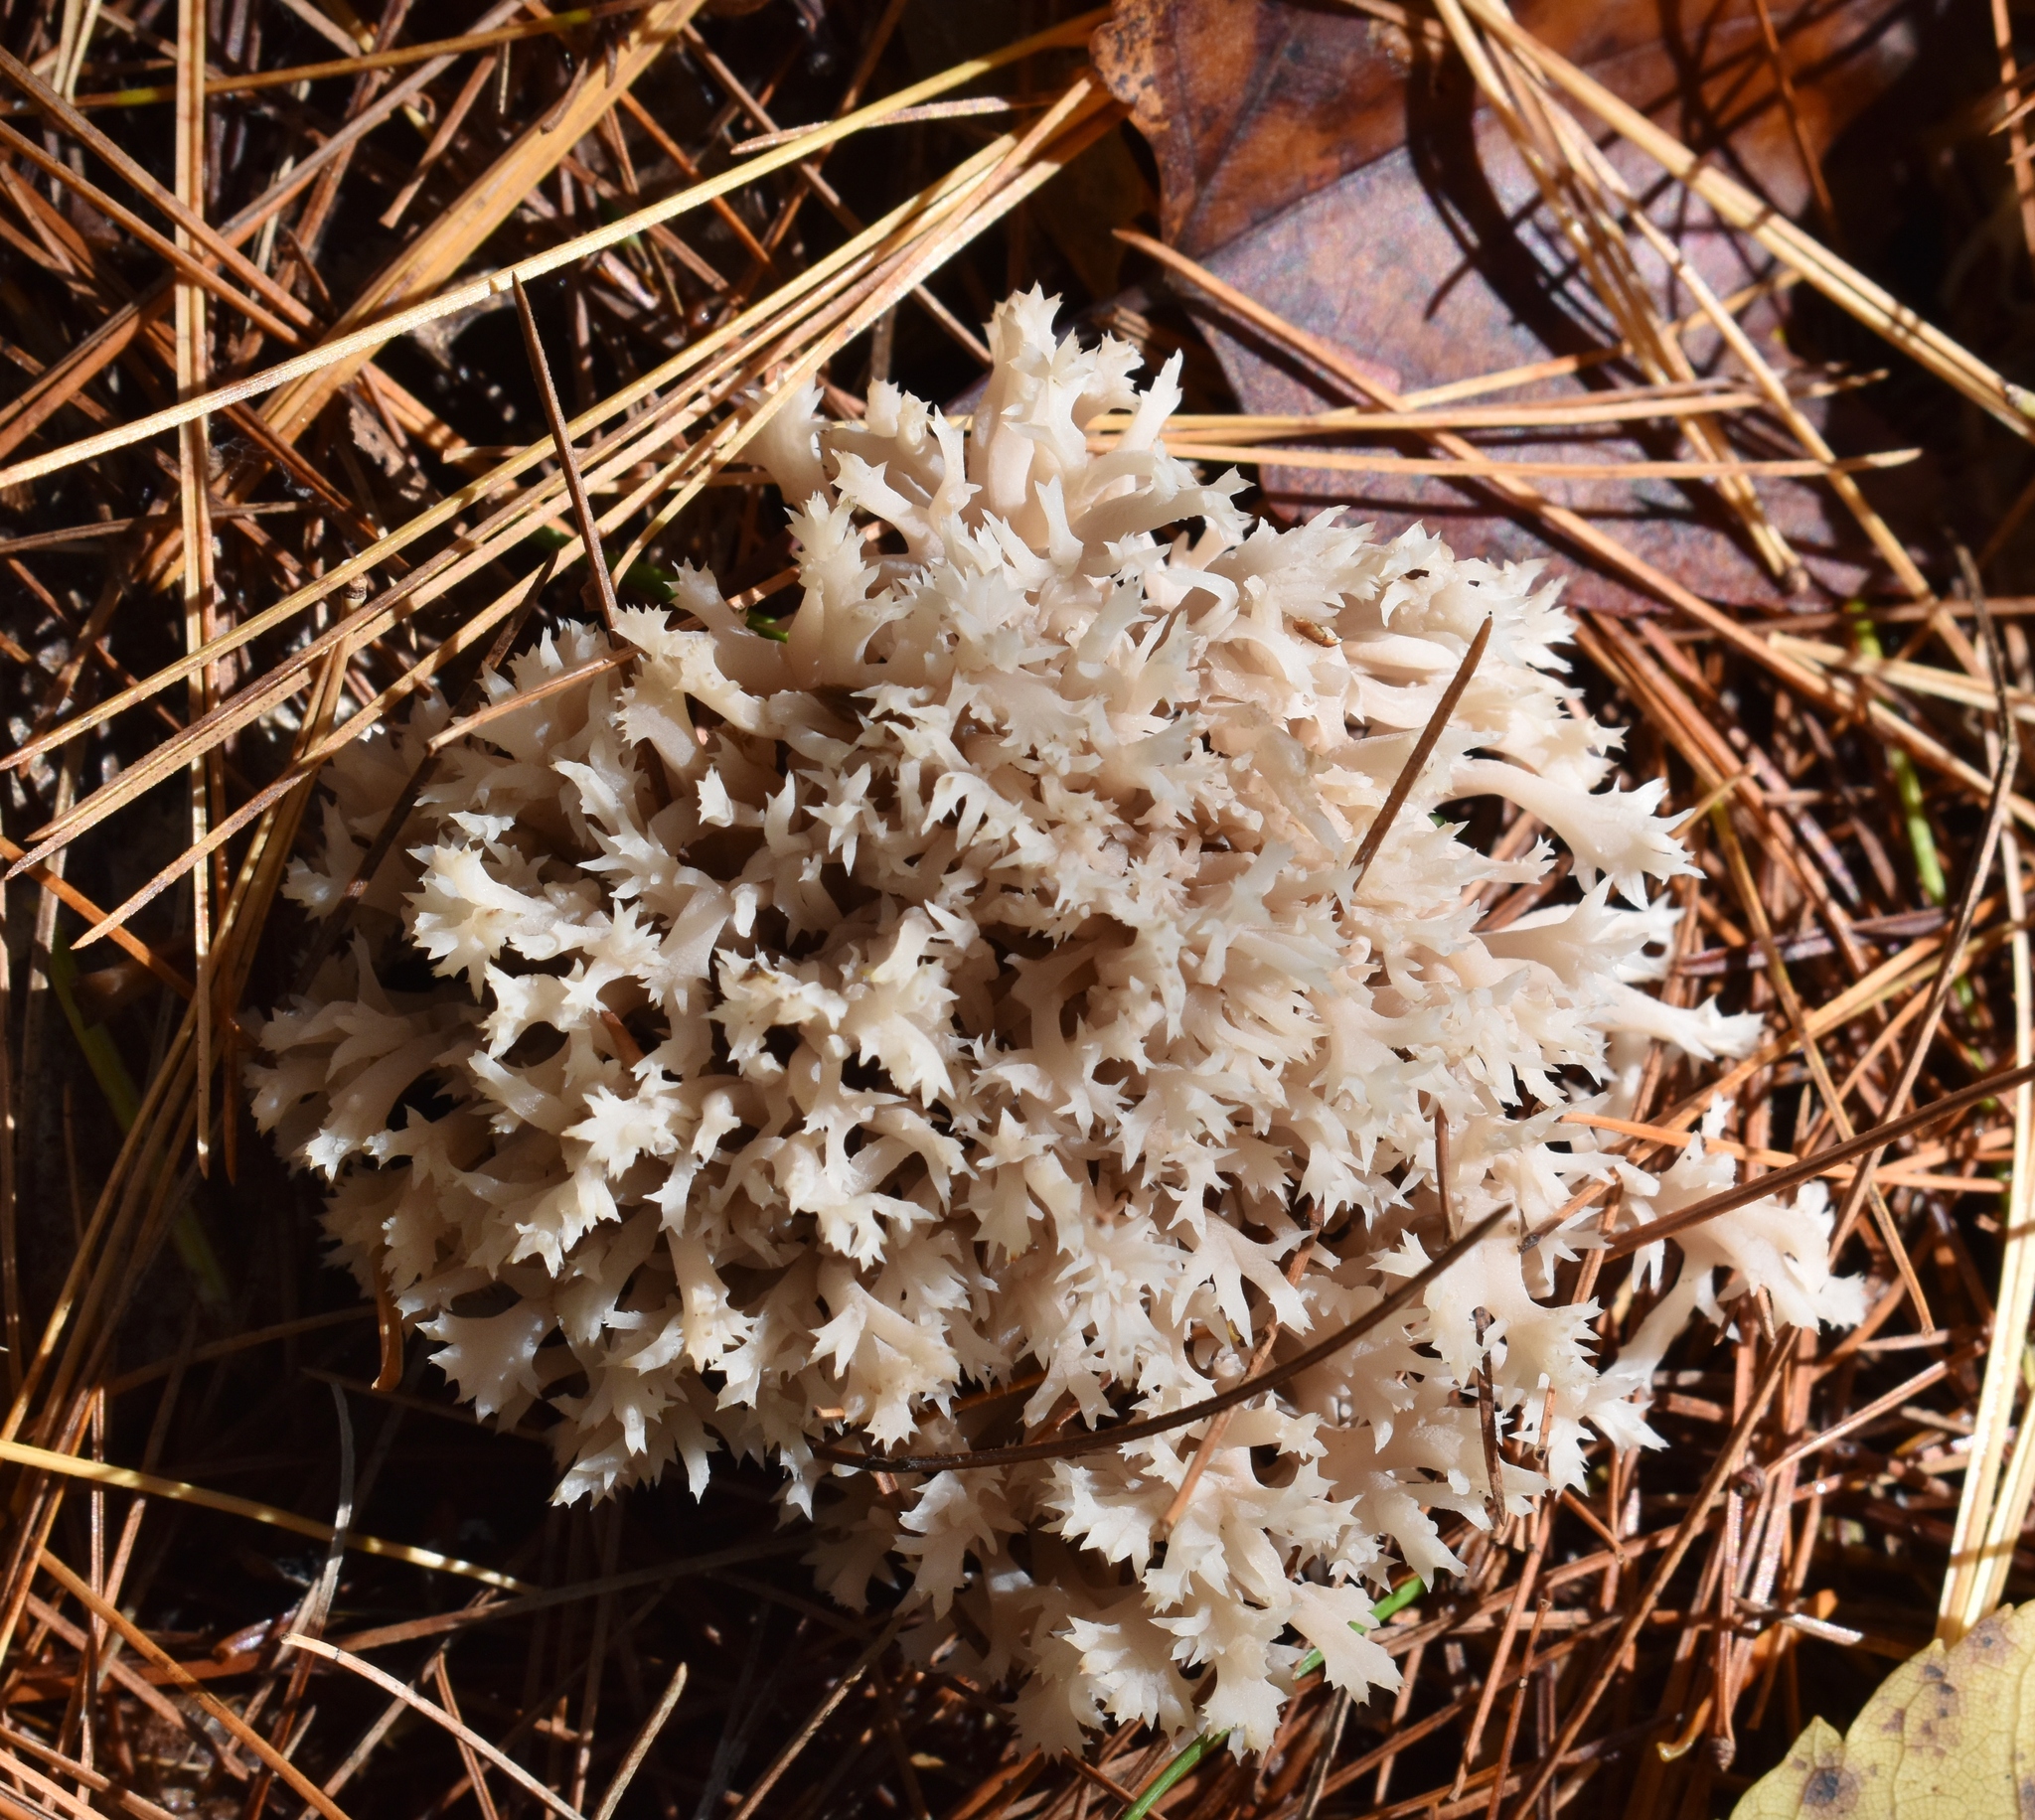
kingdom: Fungi
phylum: Basidiomycota
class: Agaricomycetes
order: Cantharellales
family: Hydnaceae
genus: Clavulina
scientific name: Clavulina coralloides
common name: Crested coral
